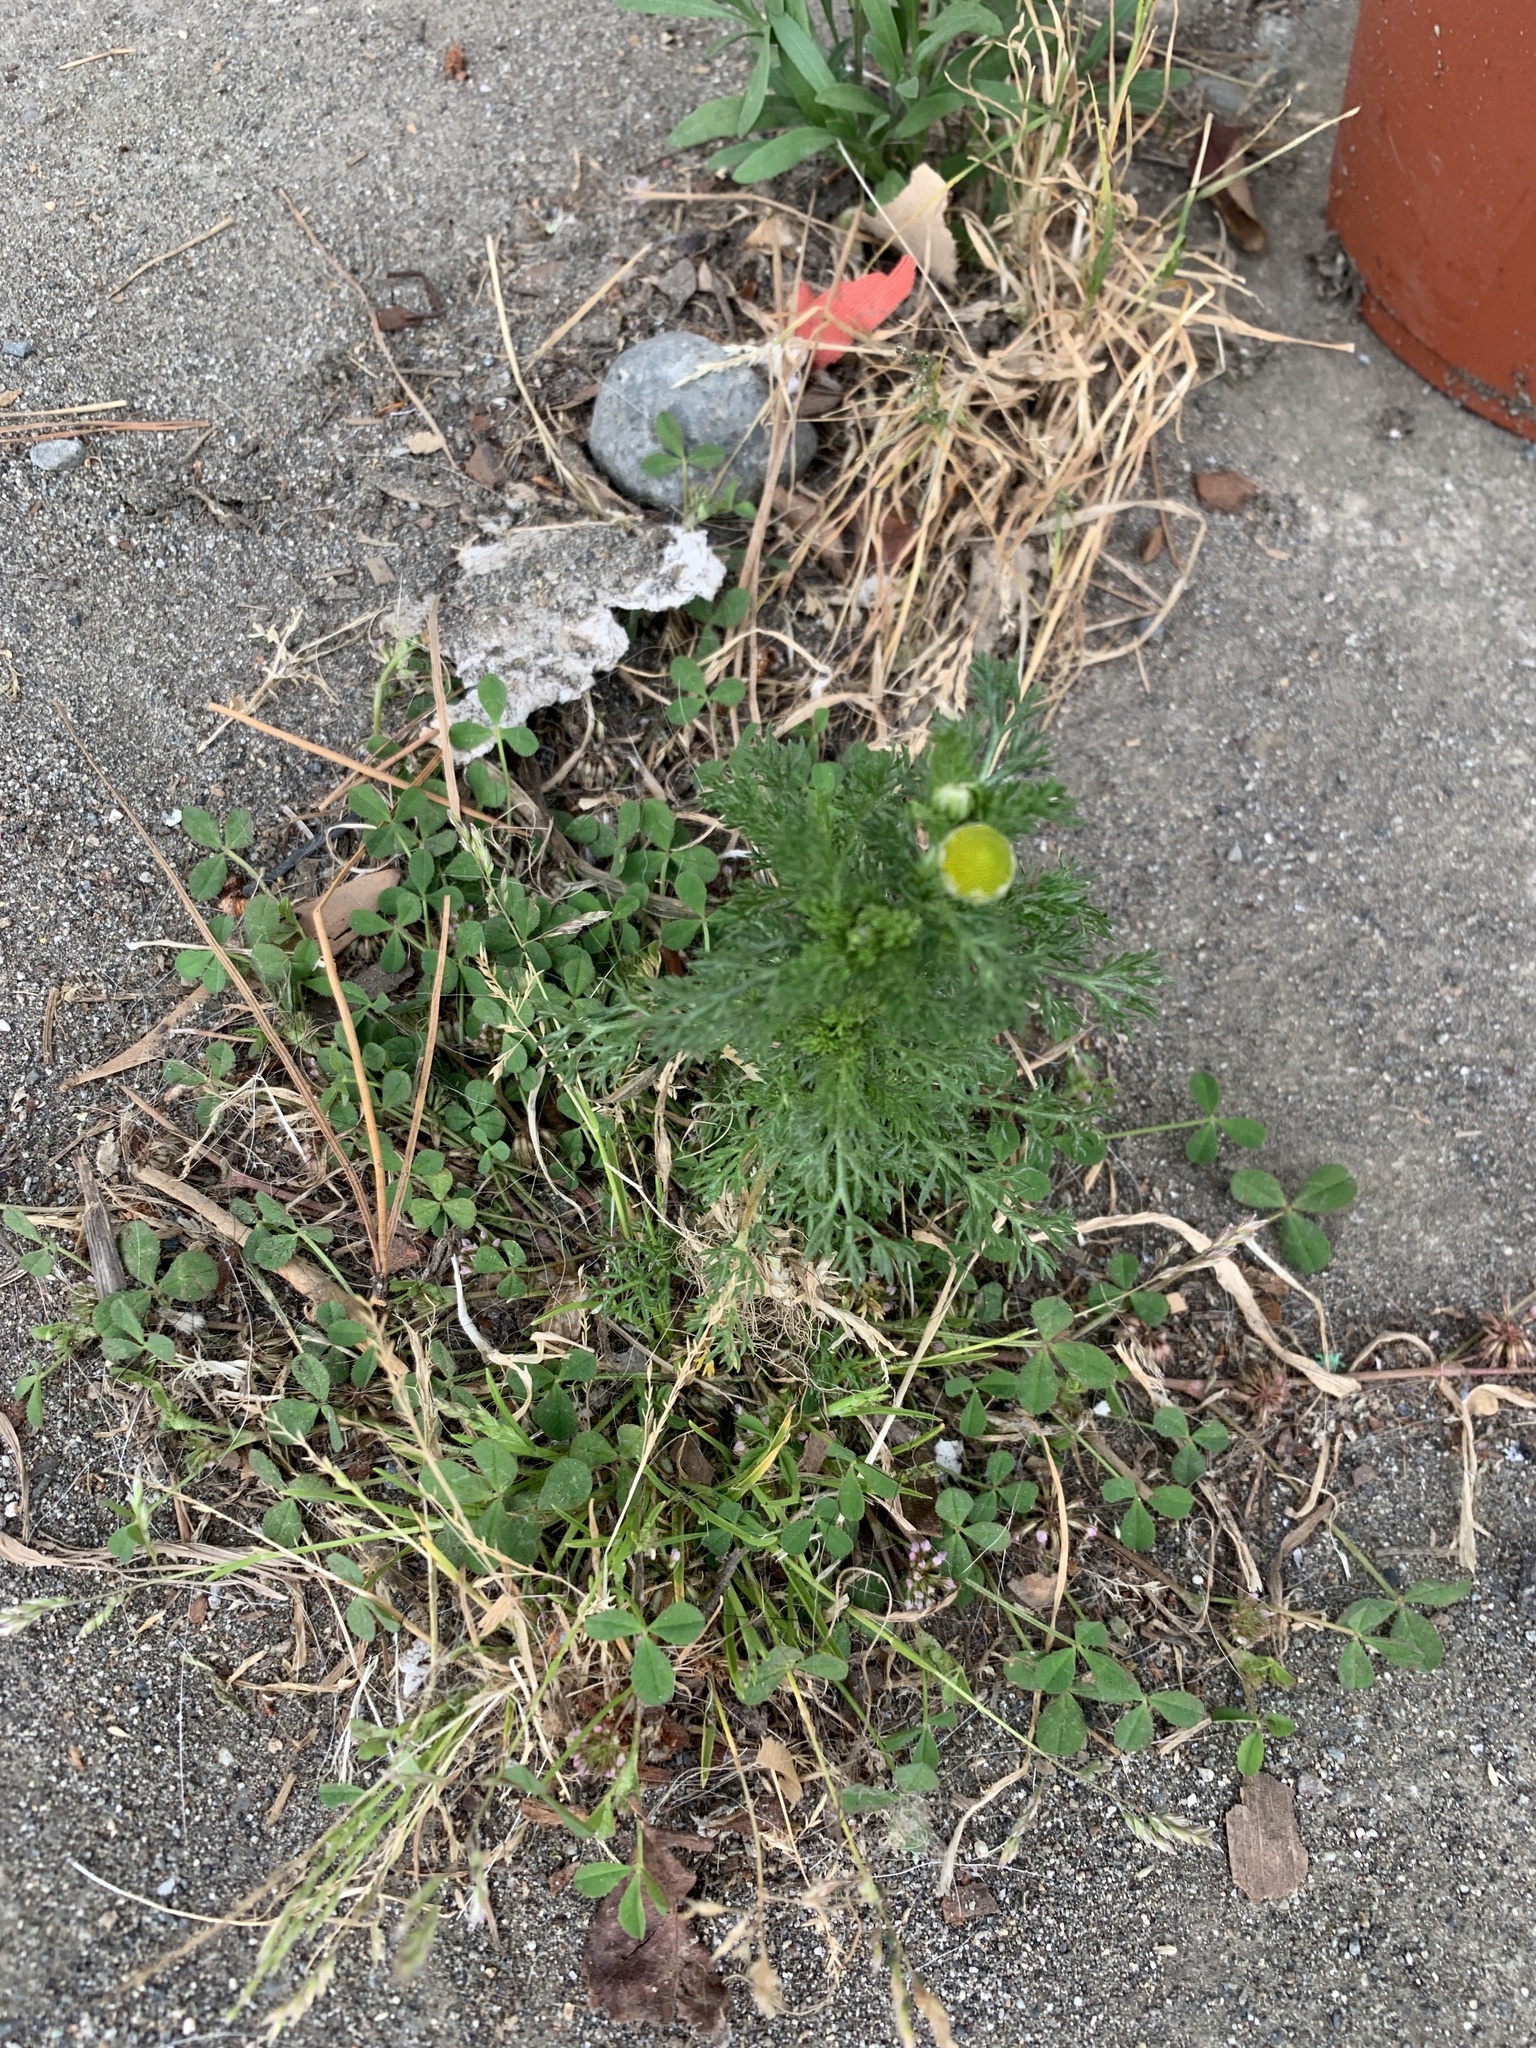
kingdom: Plantae
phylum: Tracheophyta
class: Magnoliopsida
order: Asterales
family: Asteraceae
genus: Matricaria
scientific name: Matricaria discoidea
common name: Disc mayweed
